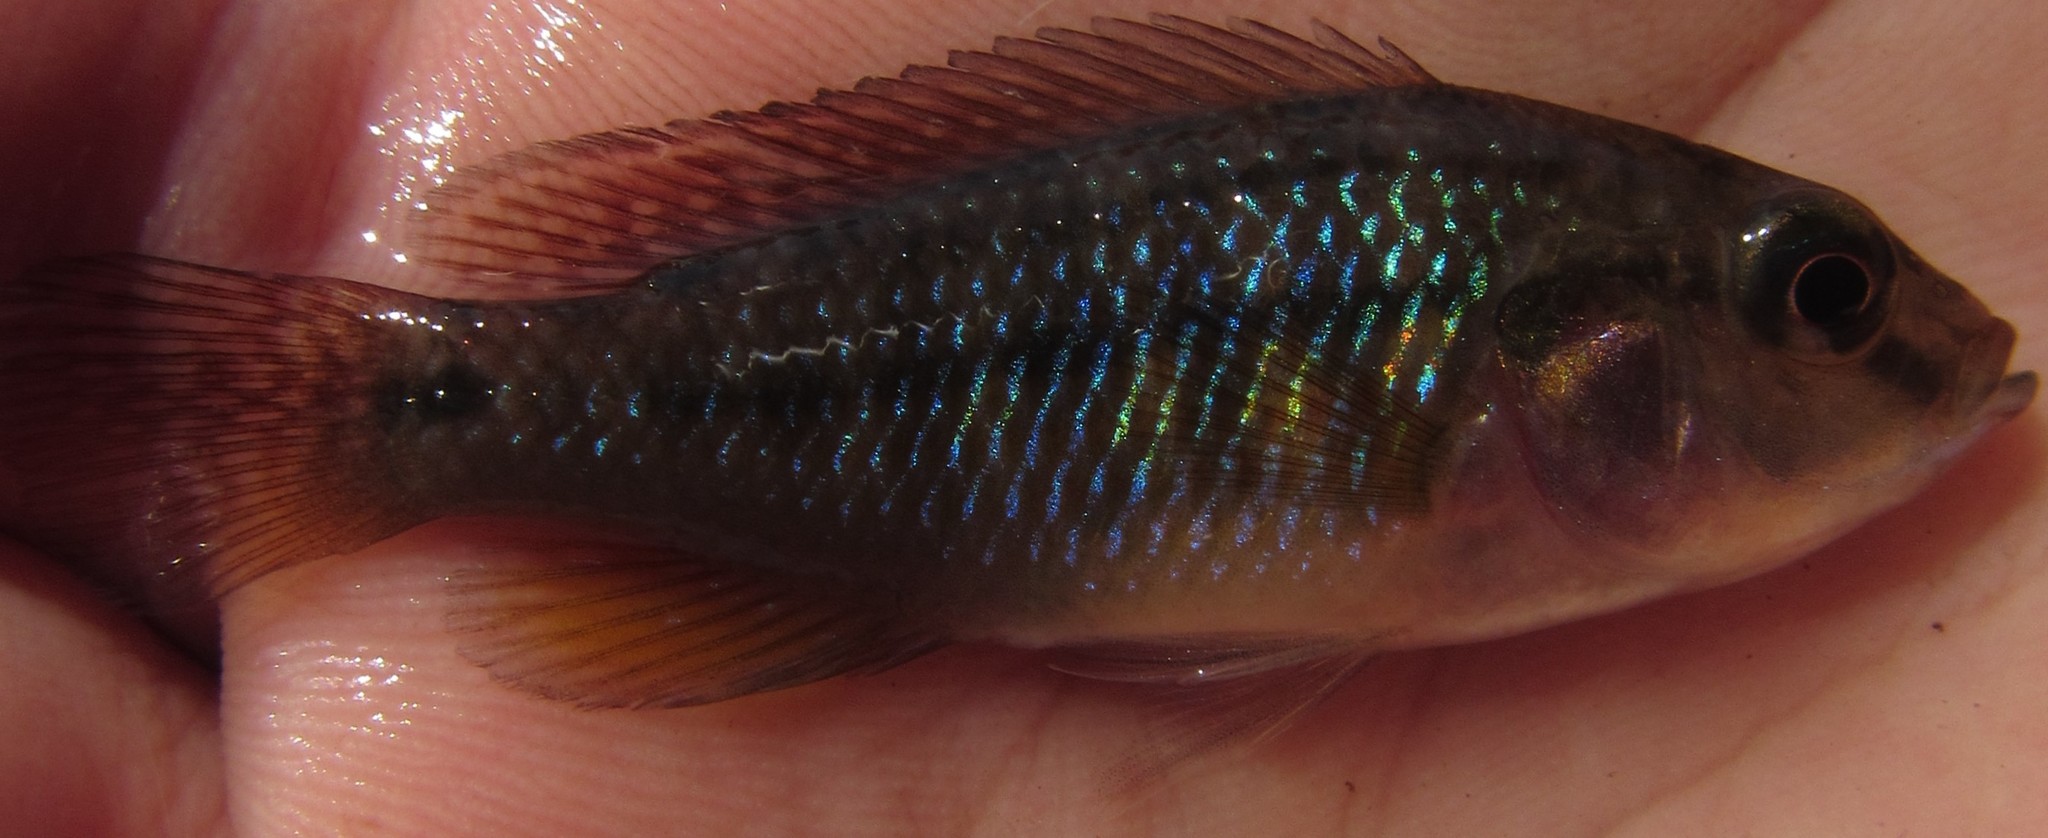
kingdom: Animalia
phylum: Chordata
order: Perciformes
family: Cichlidae
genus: Pseudocrenilabrus
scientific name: Pseudocrenilabrus philander
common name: Southern mouthbrooder
